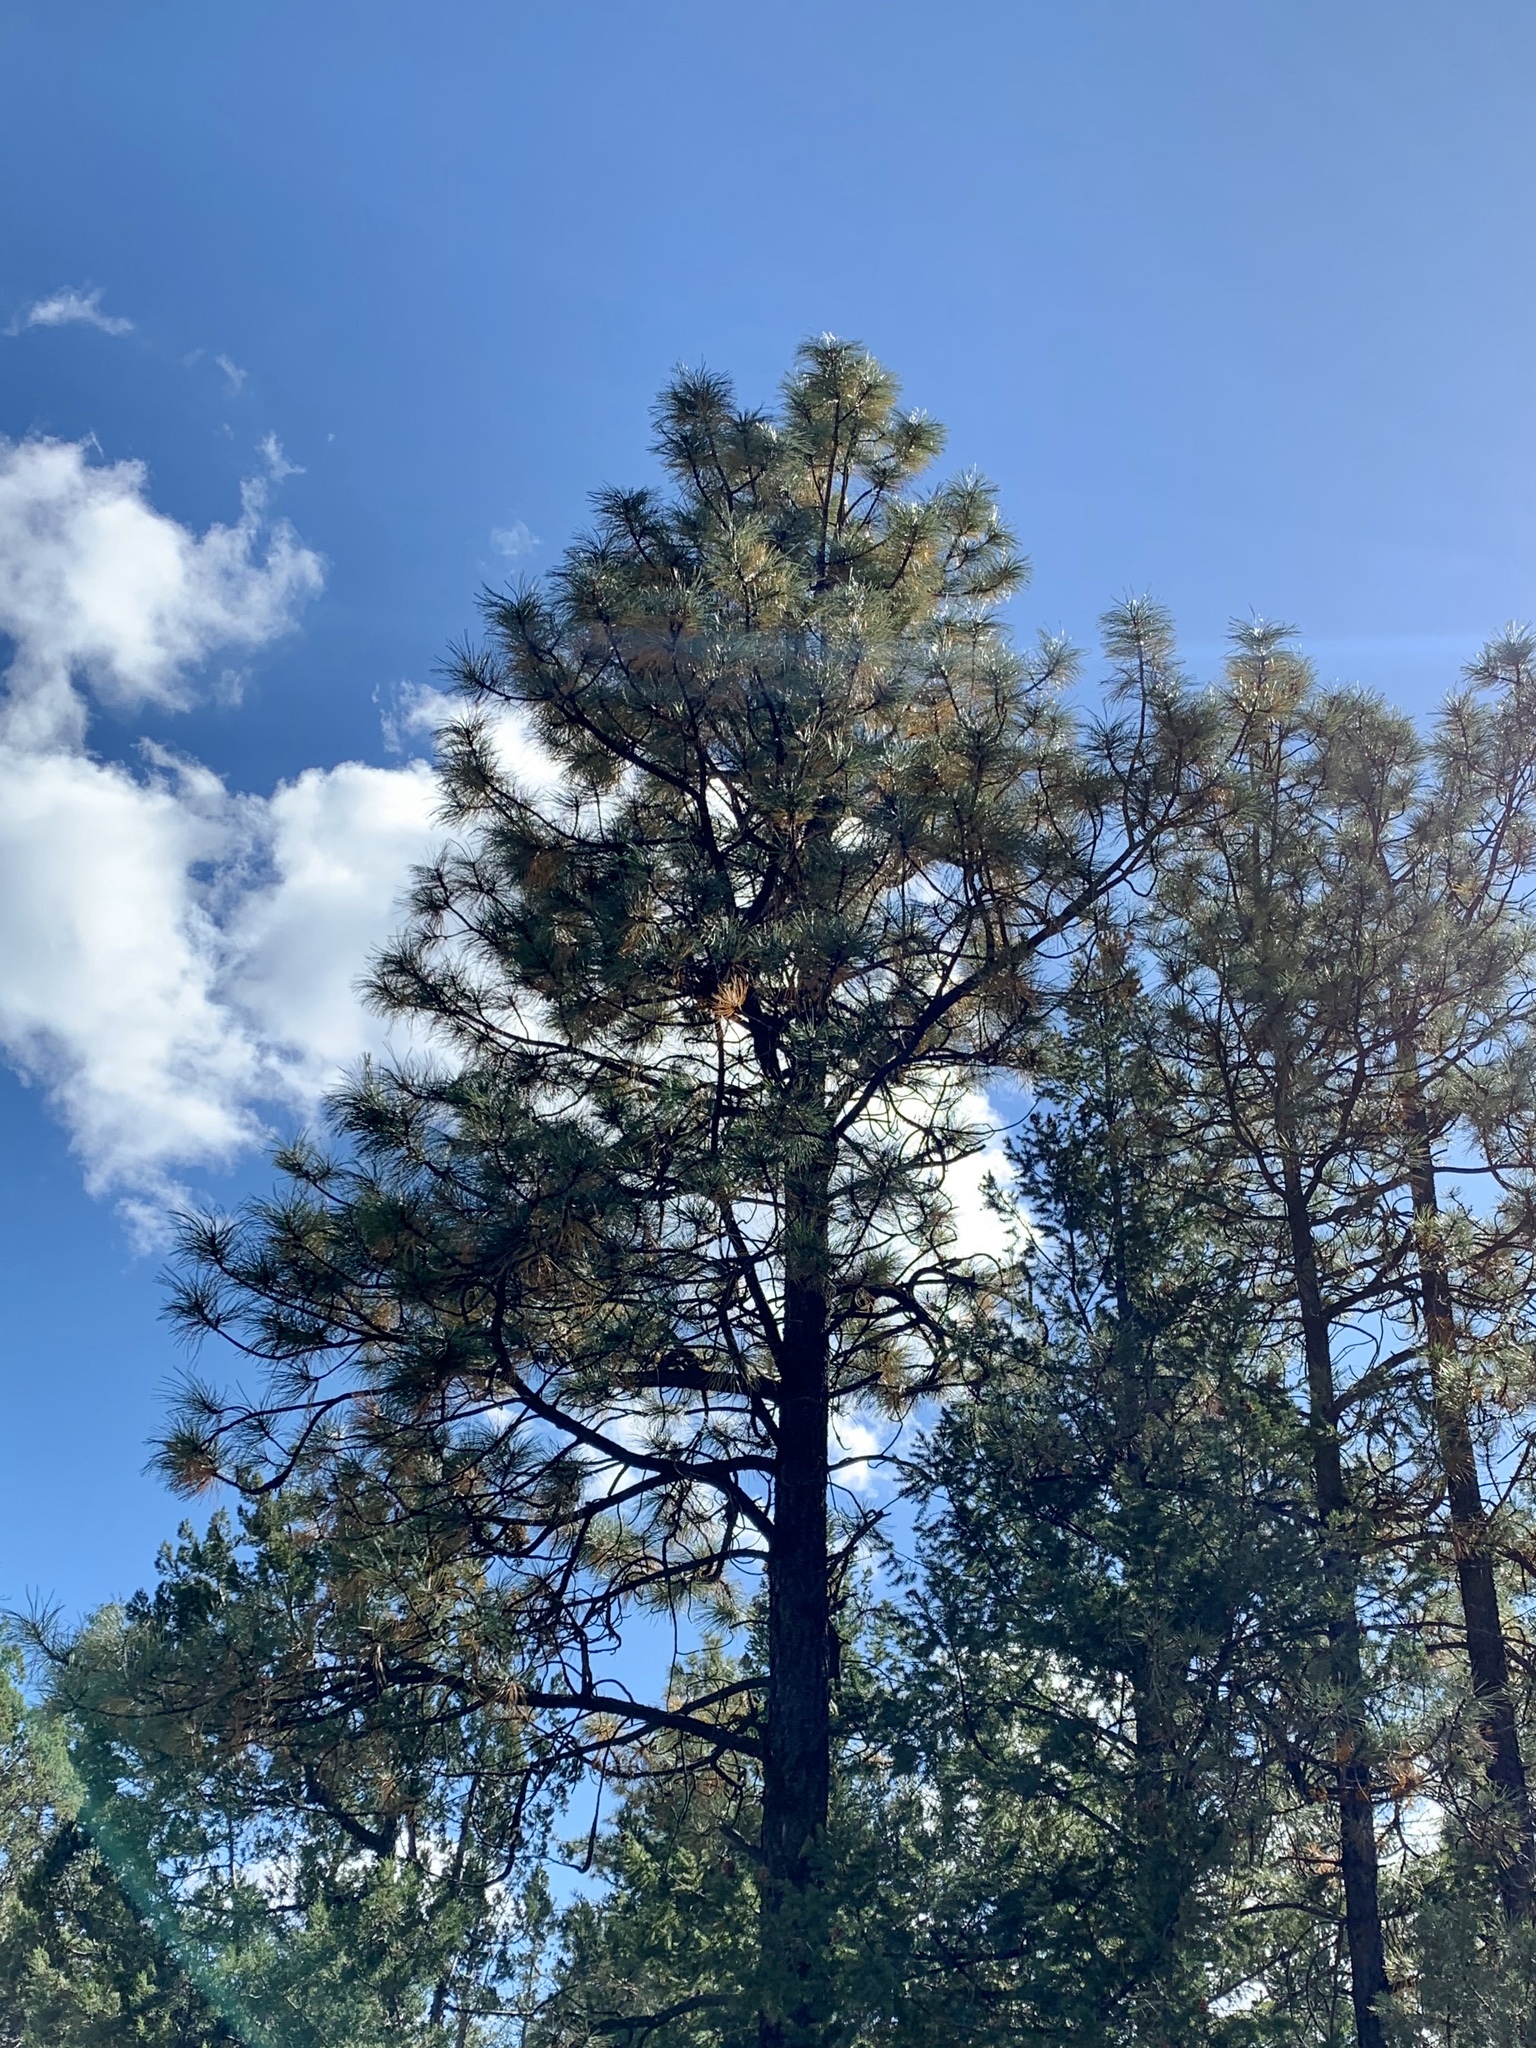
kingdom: Plantae
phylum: Tracheophyta
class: Pinopsida
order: Pinales
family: Pinaceae
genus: Pinus
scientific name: Pinus ponderosa
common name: Western yellow-pine
